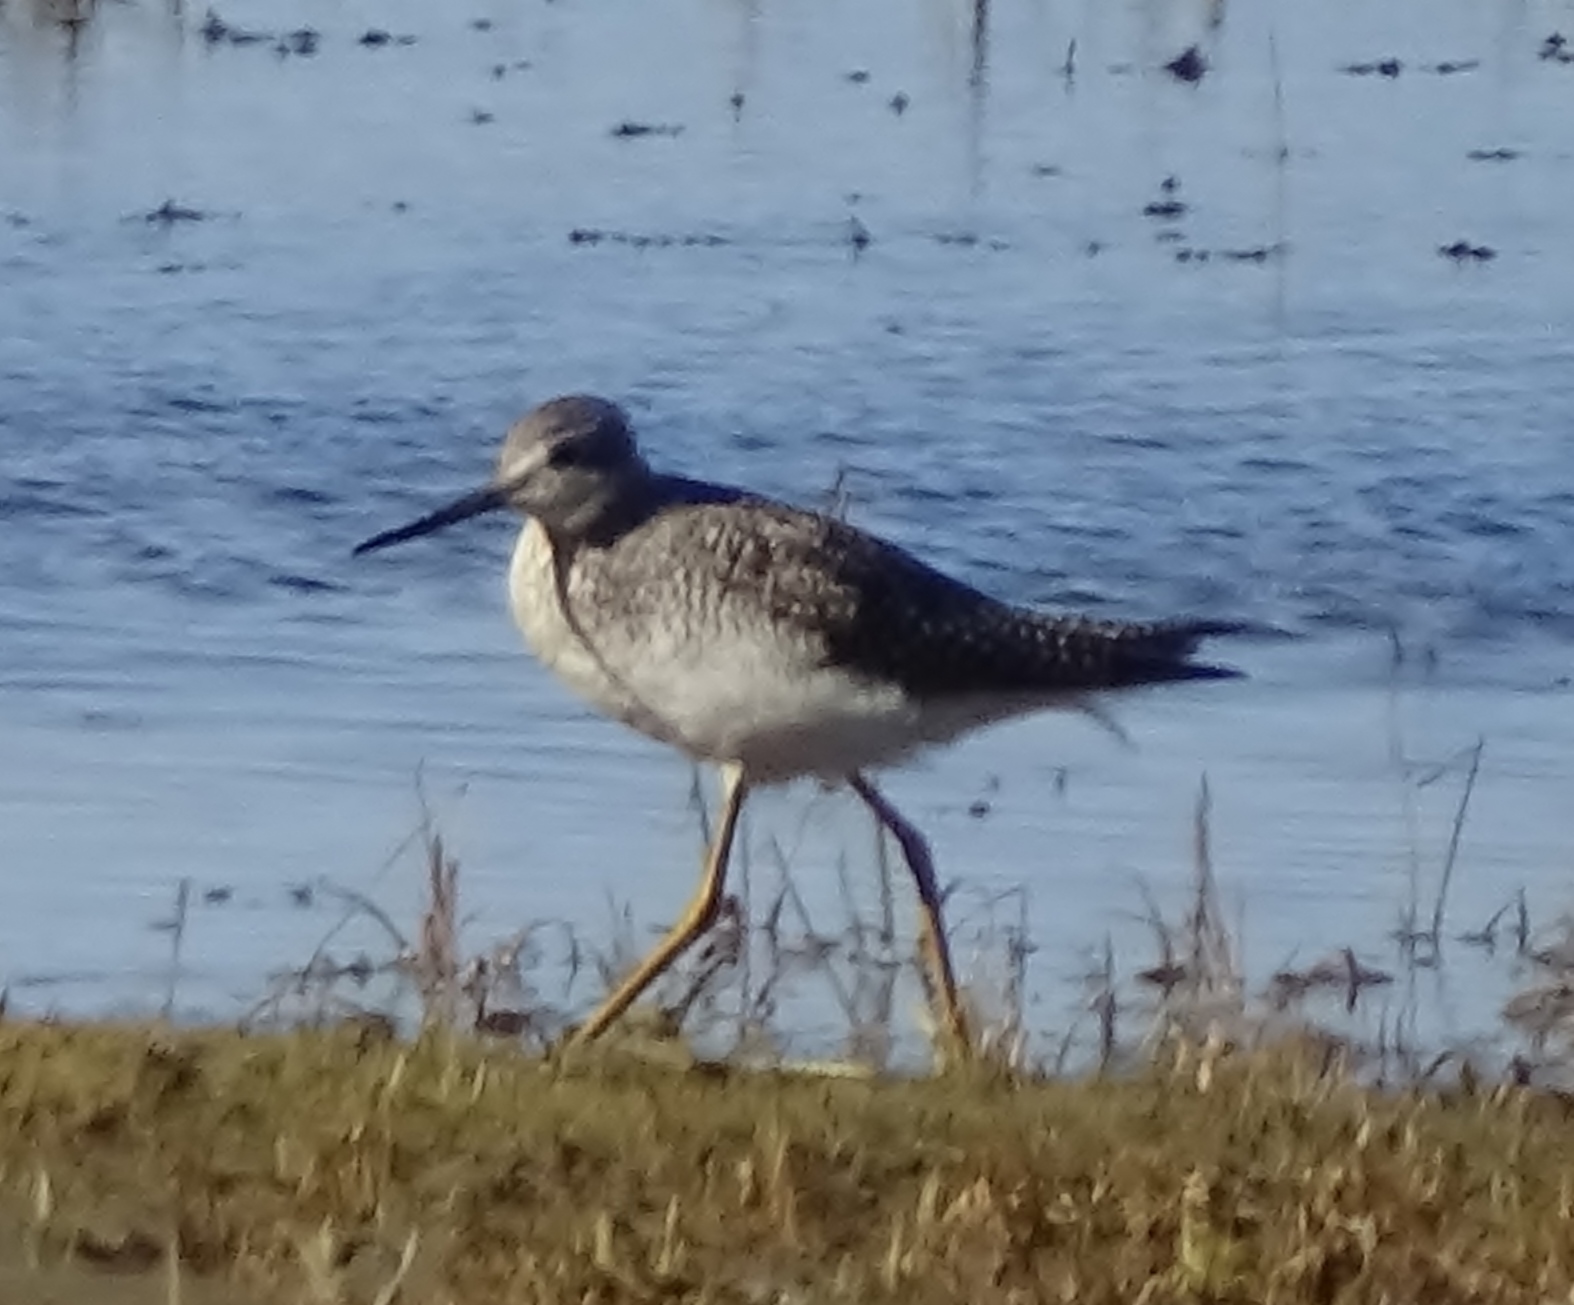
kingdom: Animalia
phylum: Chordata
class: Aves
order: Charadriiformes
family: Scolopacidae
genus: Tringa
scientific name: Tringa melanoleuca
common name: Greater yellowlegs
